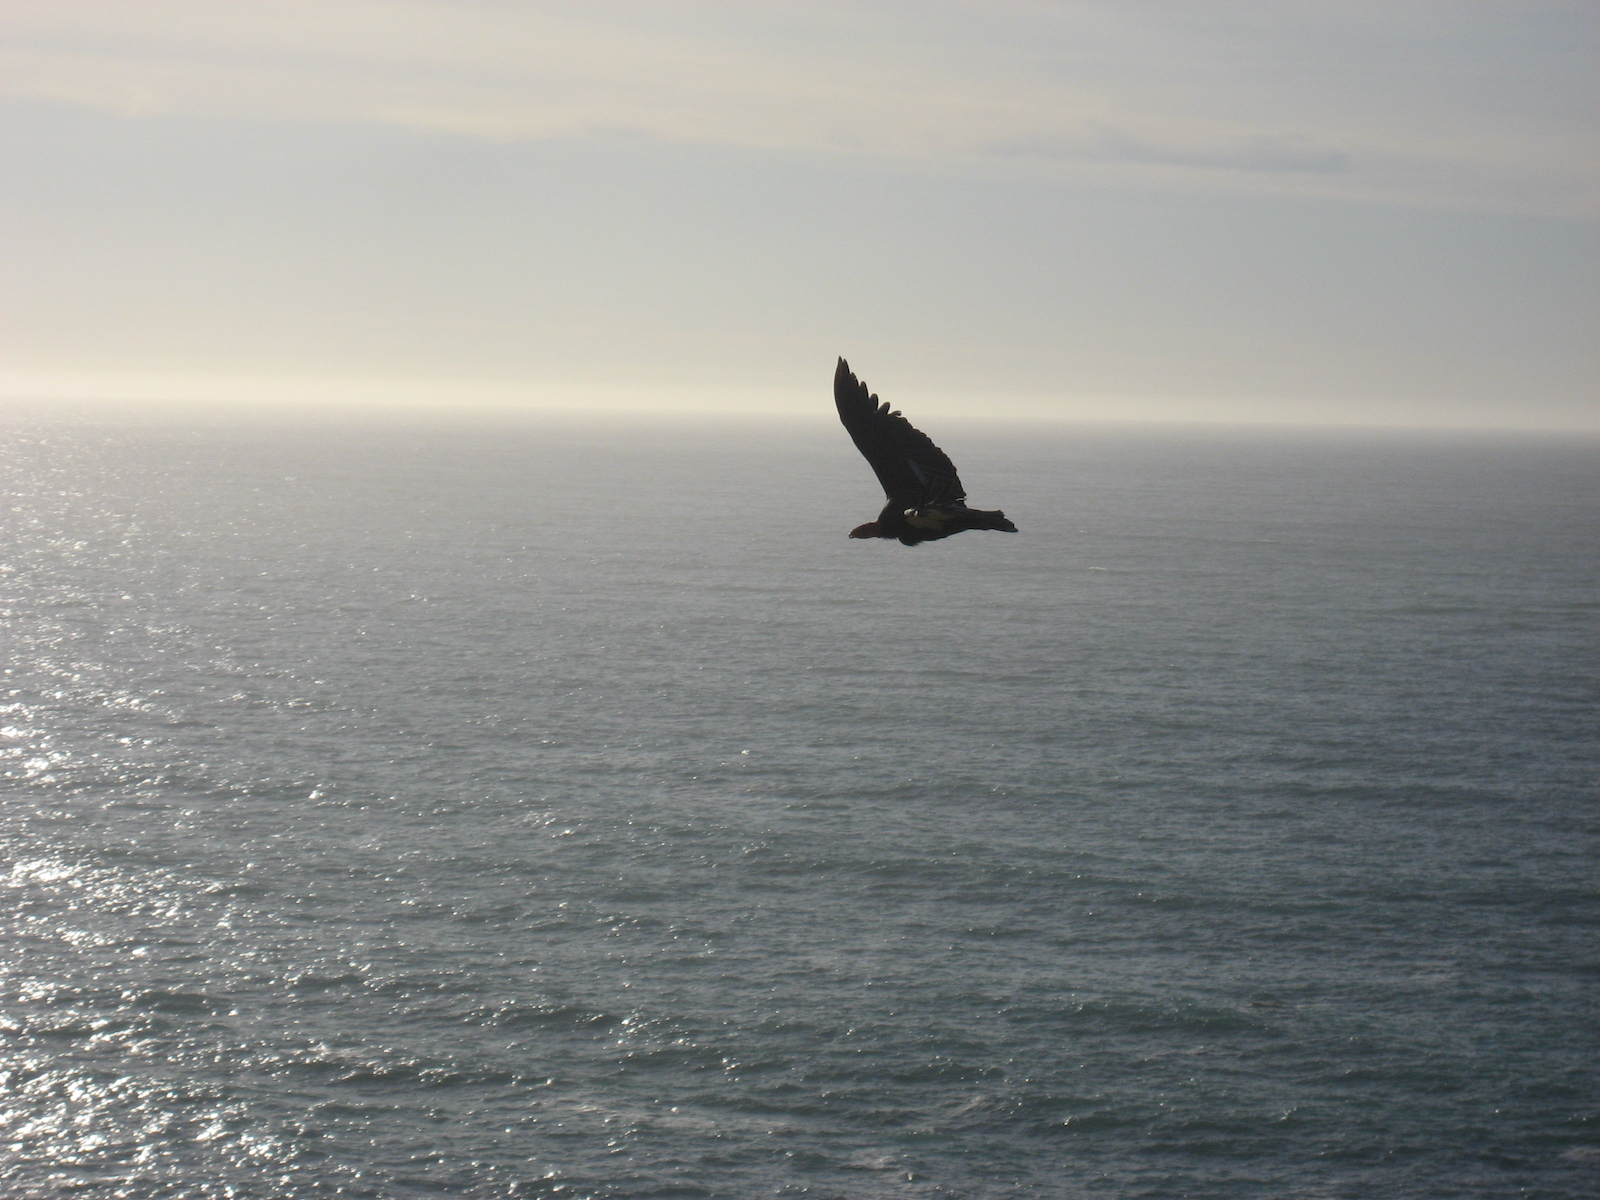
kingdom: Animalia
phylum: Chordata
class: Aves
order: Accipitriformes
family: Cathartidae
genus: Gymnogyps
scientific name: Gymnogyps californianus
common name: California condor
